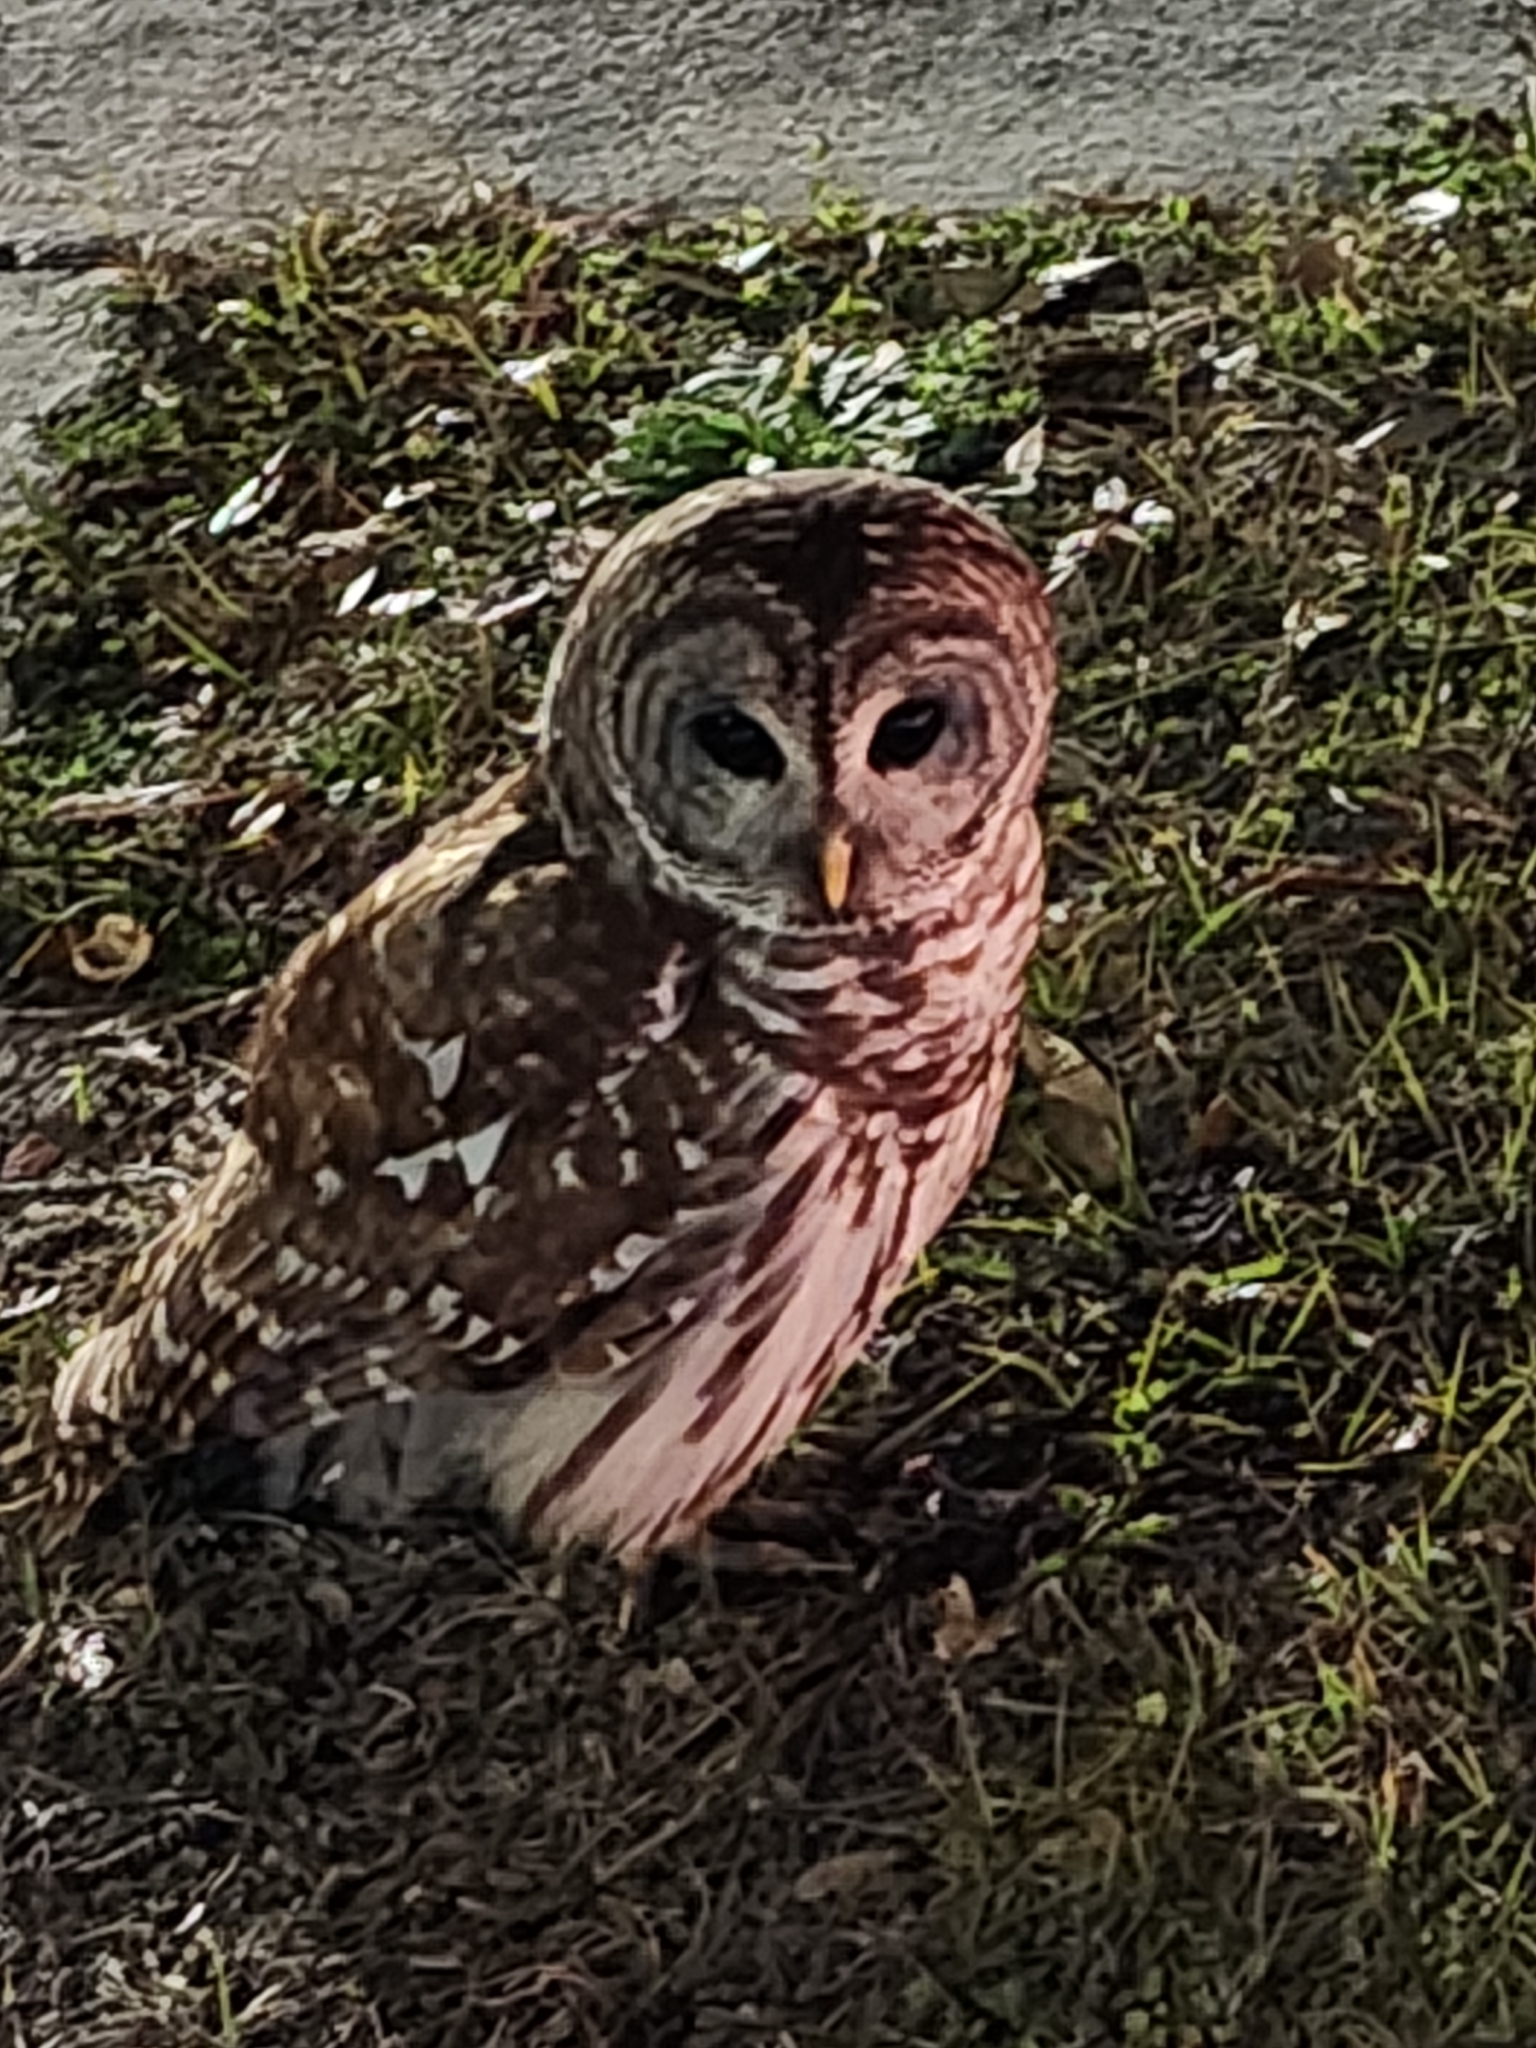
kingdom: Animalia
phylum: Chordata
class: Aves
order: Strigiformes
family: Strigidae
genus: Strix
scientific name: Strix varia
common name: Barred owl
